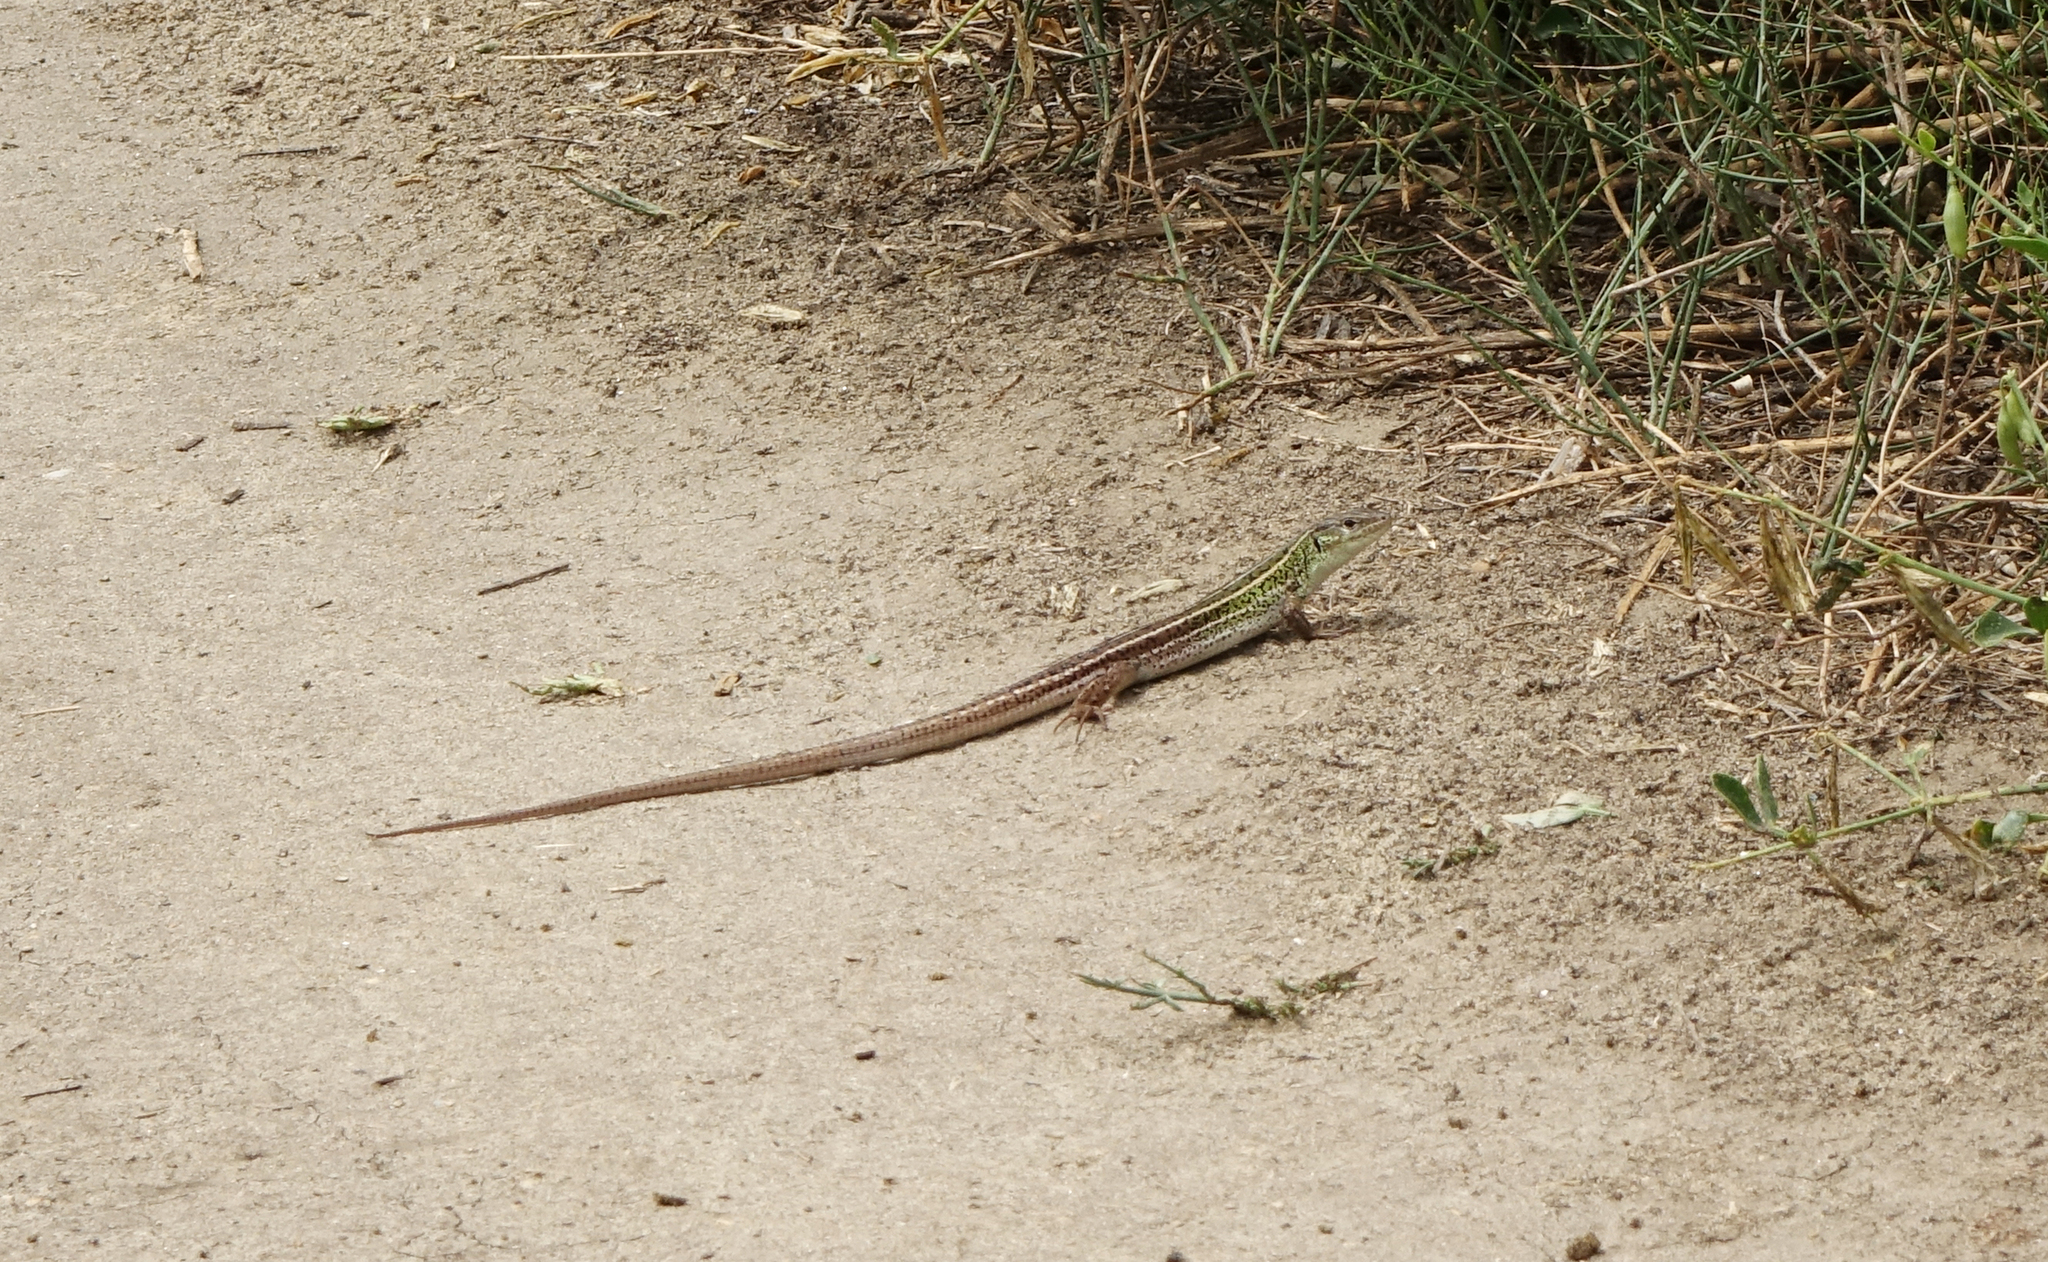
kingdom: Animalia
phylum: Chordata
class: Squamata
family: Lacertidae
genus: Lacerta
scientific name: Lacerta strigata
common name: Caspian green lizard
